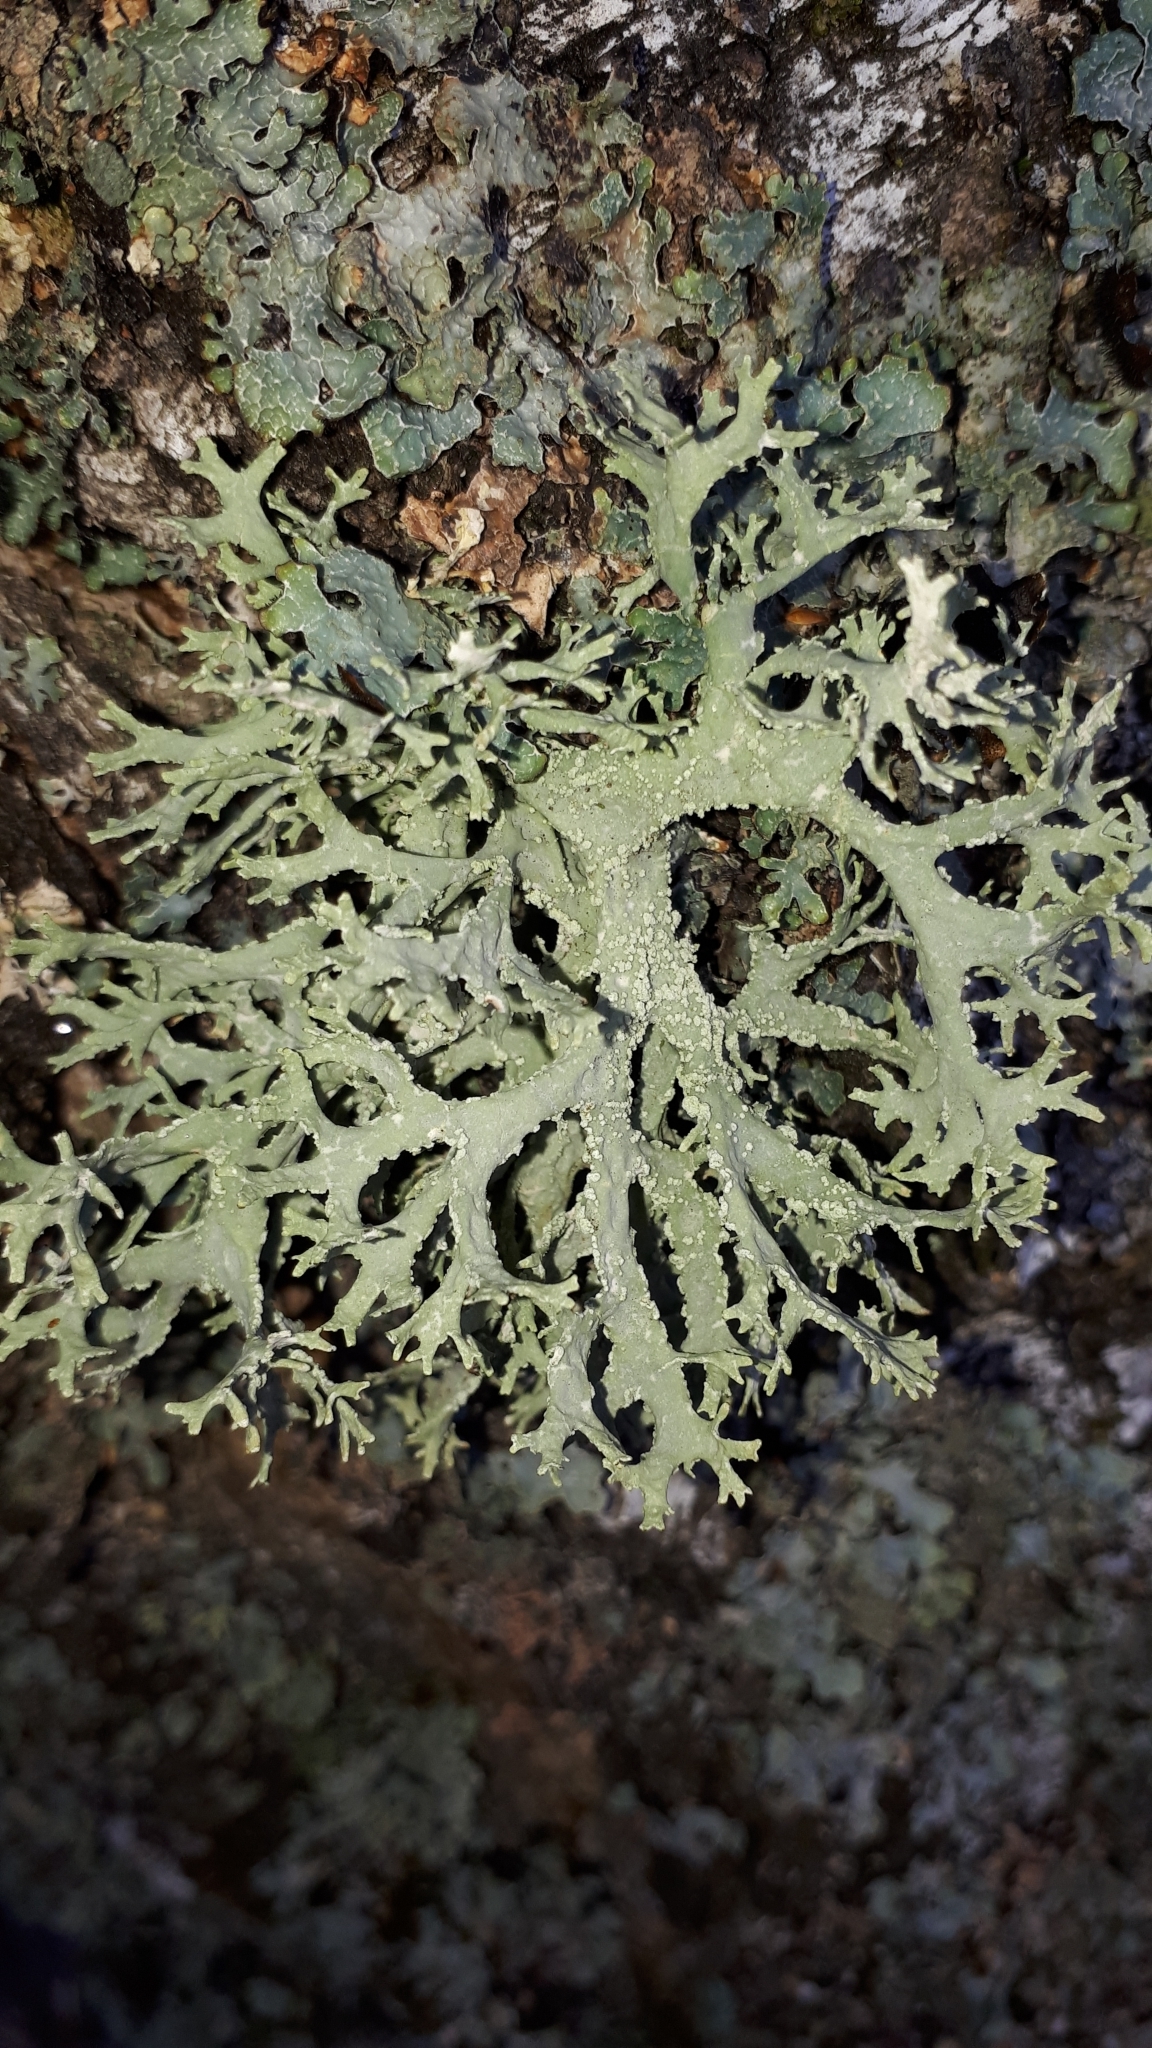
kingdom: Fungi
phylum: Ascomycota
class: Lecanoromycetes
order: Lecanorales
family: Parmeliaceae
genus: Evernia
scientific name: Evernia prunastri
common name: Oak moss
